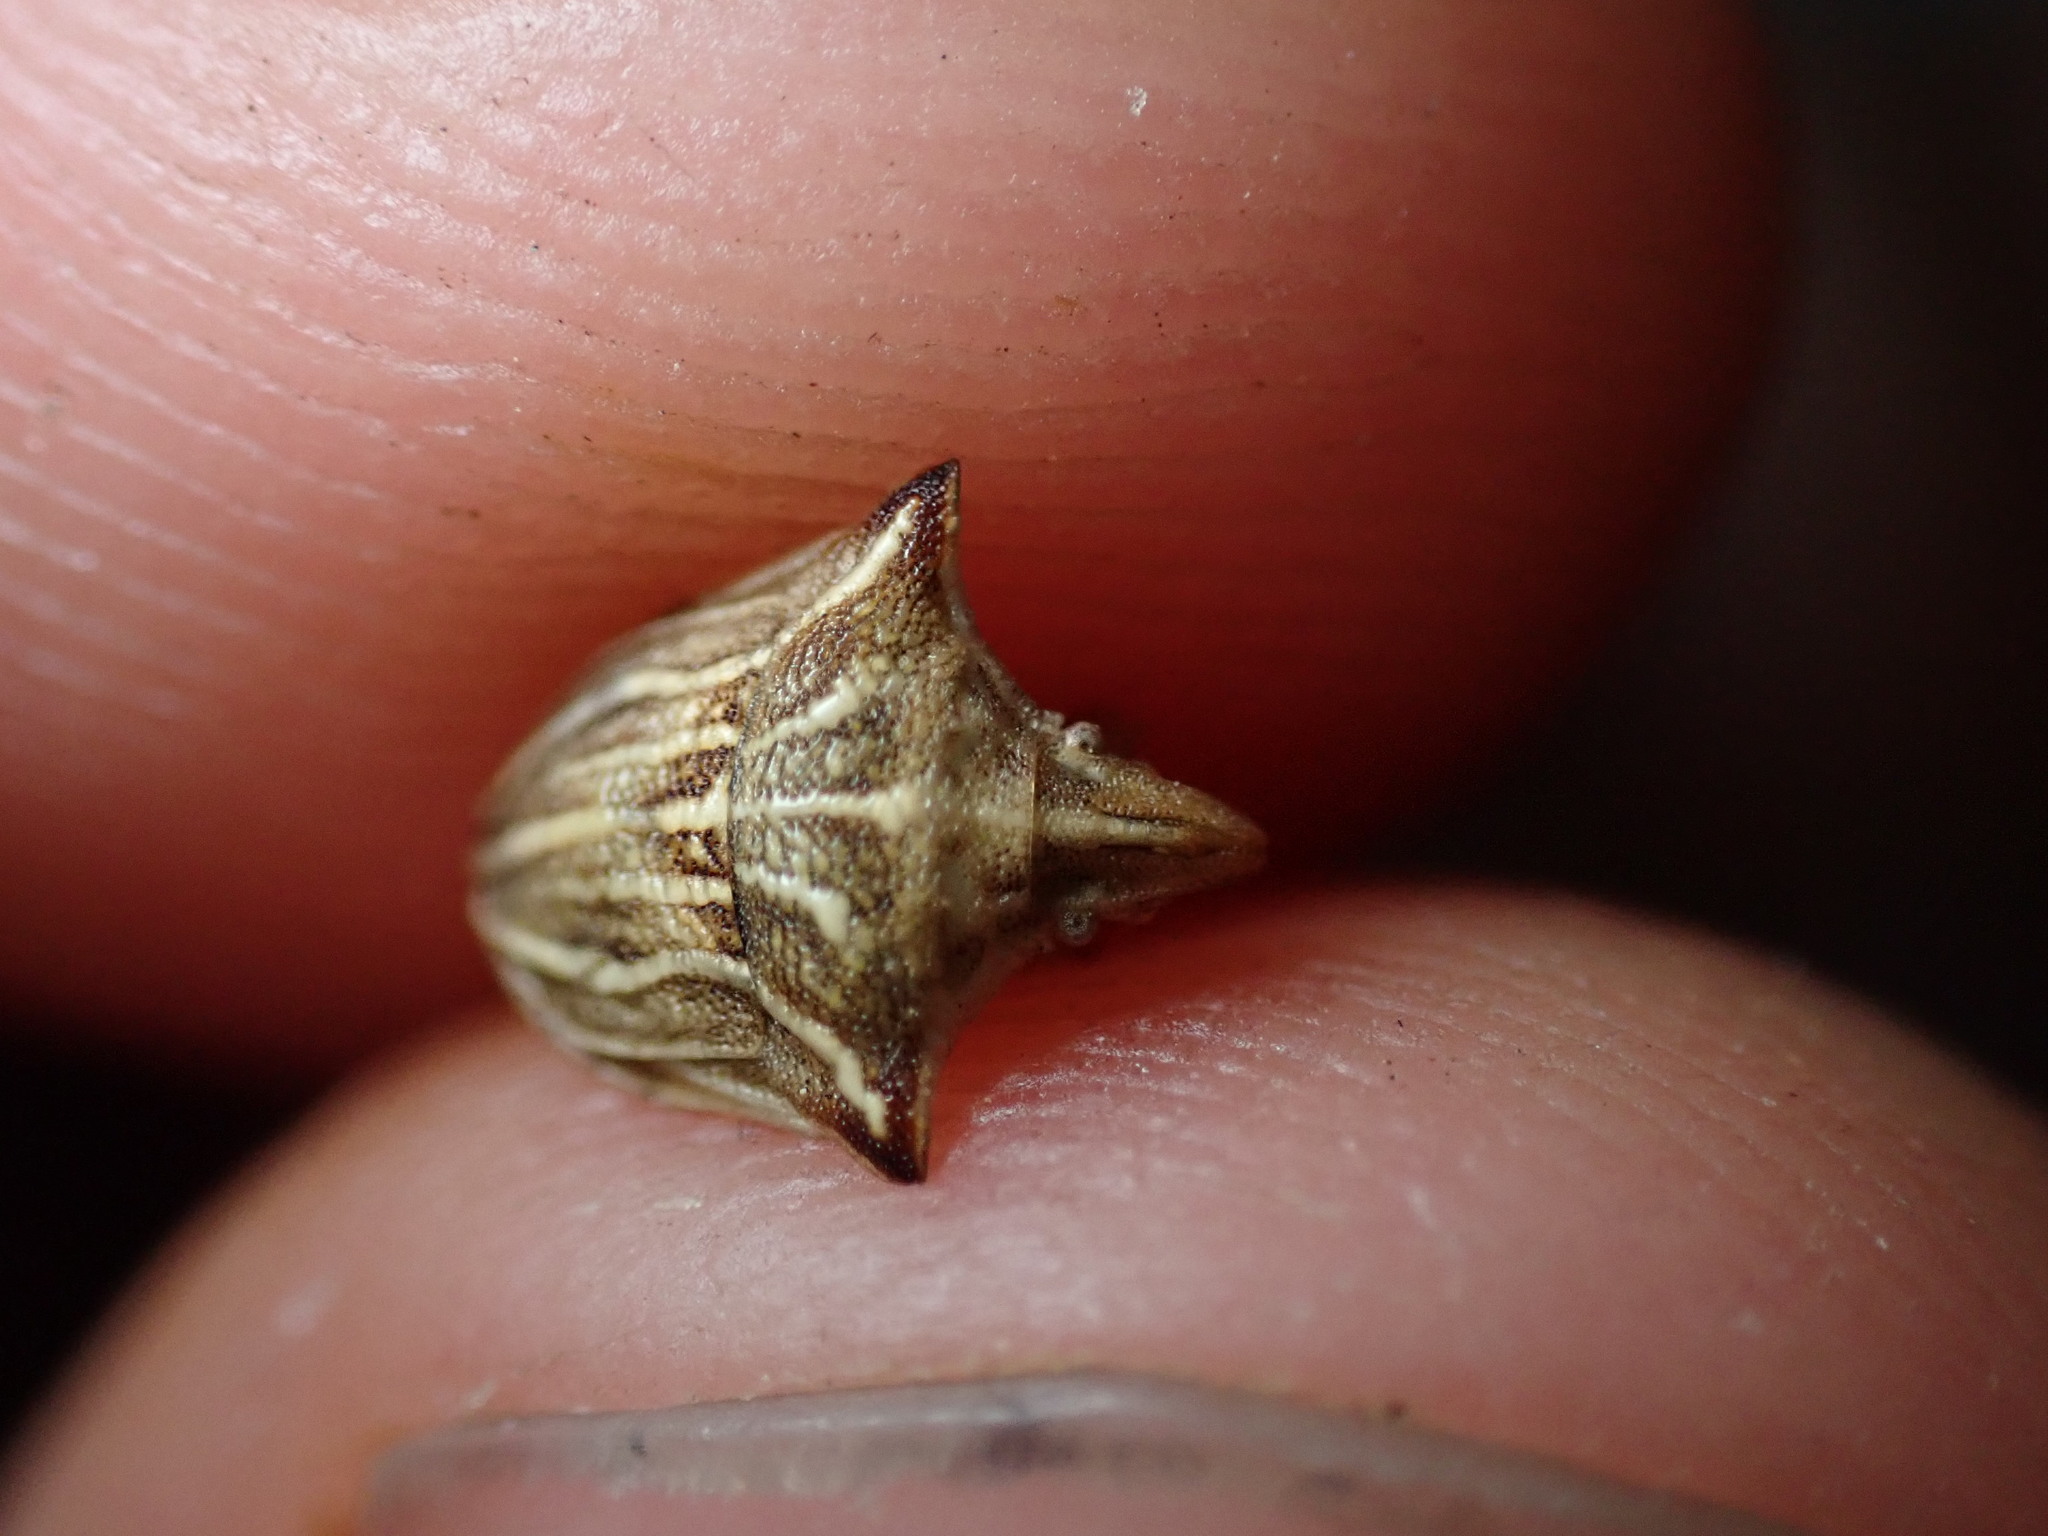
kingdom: Animalia
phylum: Arthropoda
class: Insecta
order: Hemiptera
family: Pentatomidae
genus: Ancyrosoma
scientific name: Ancyrosoma leucogrammes
